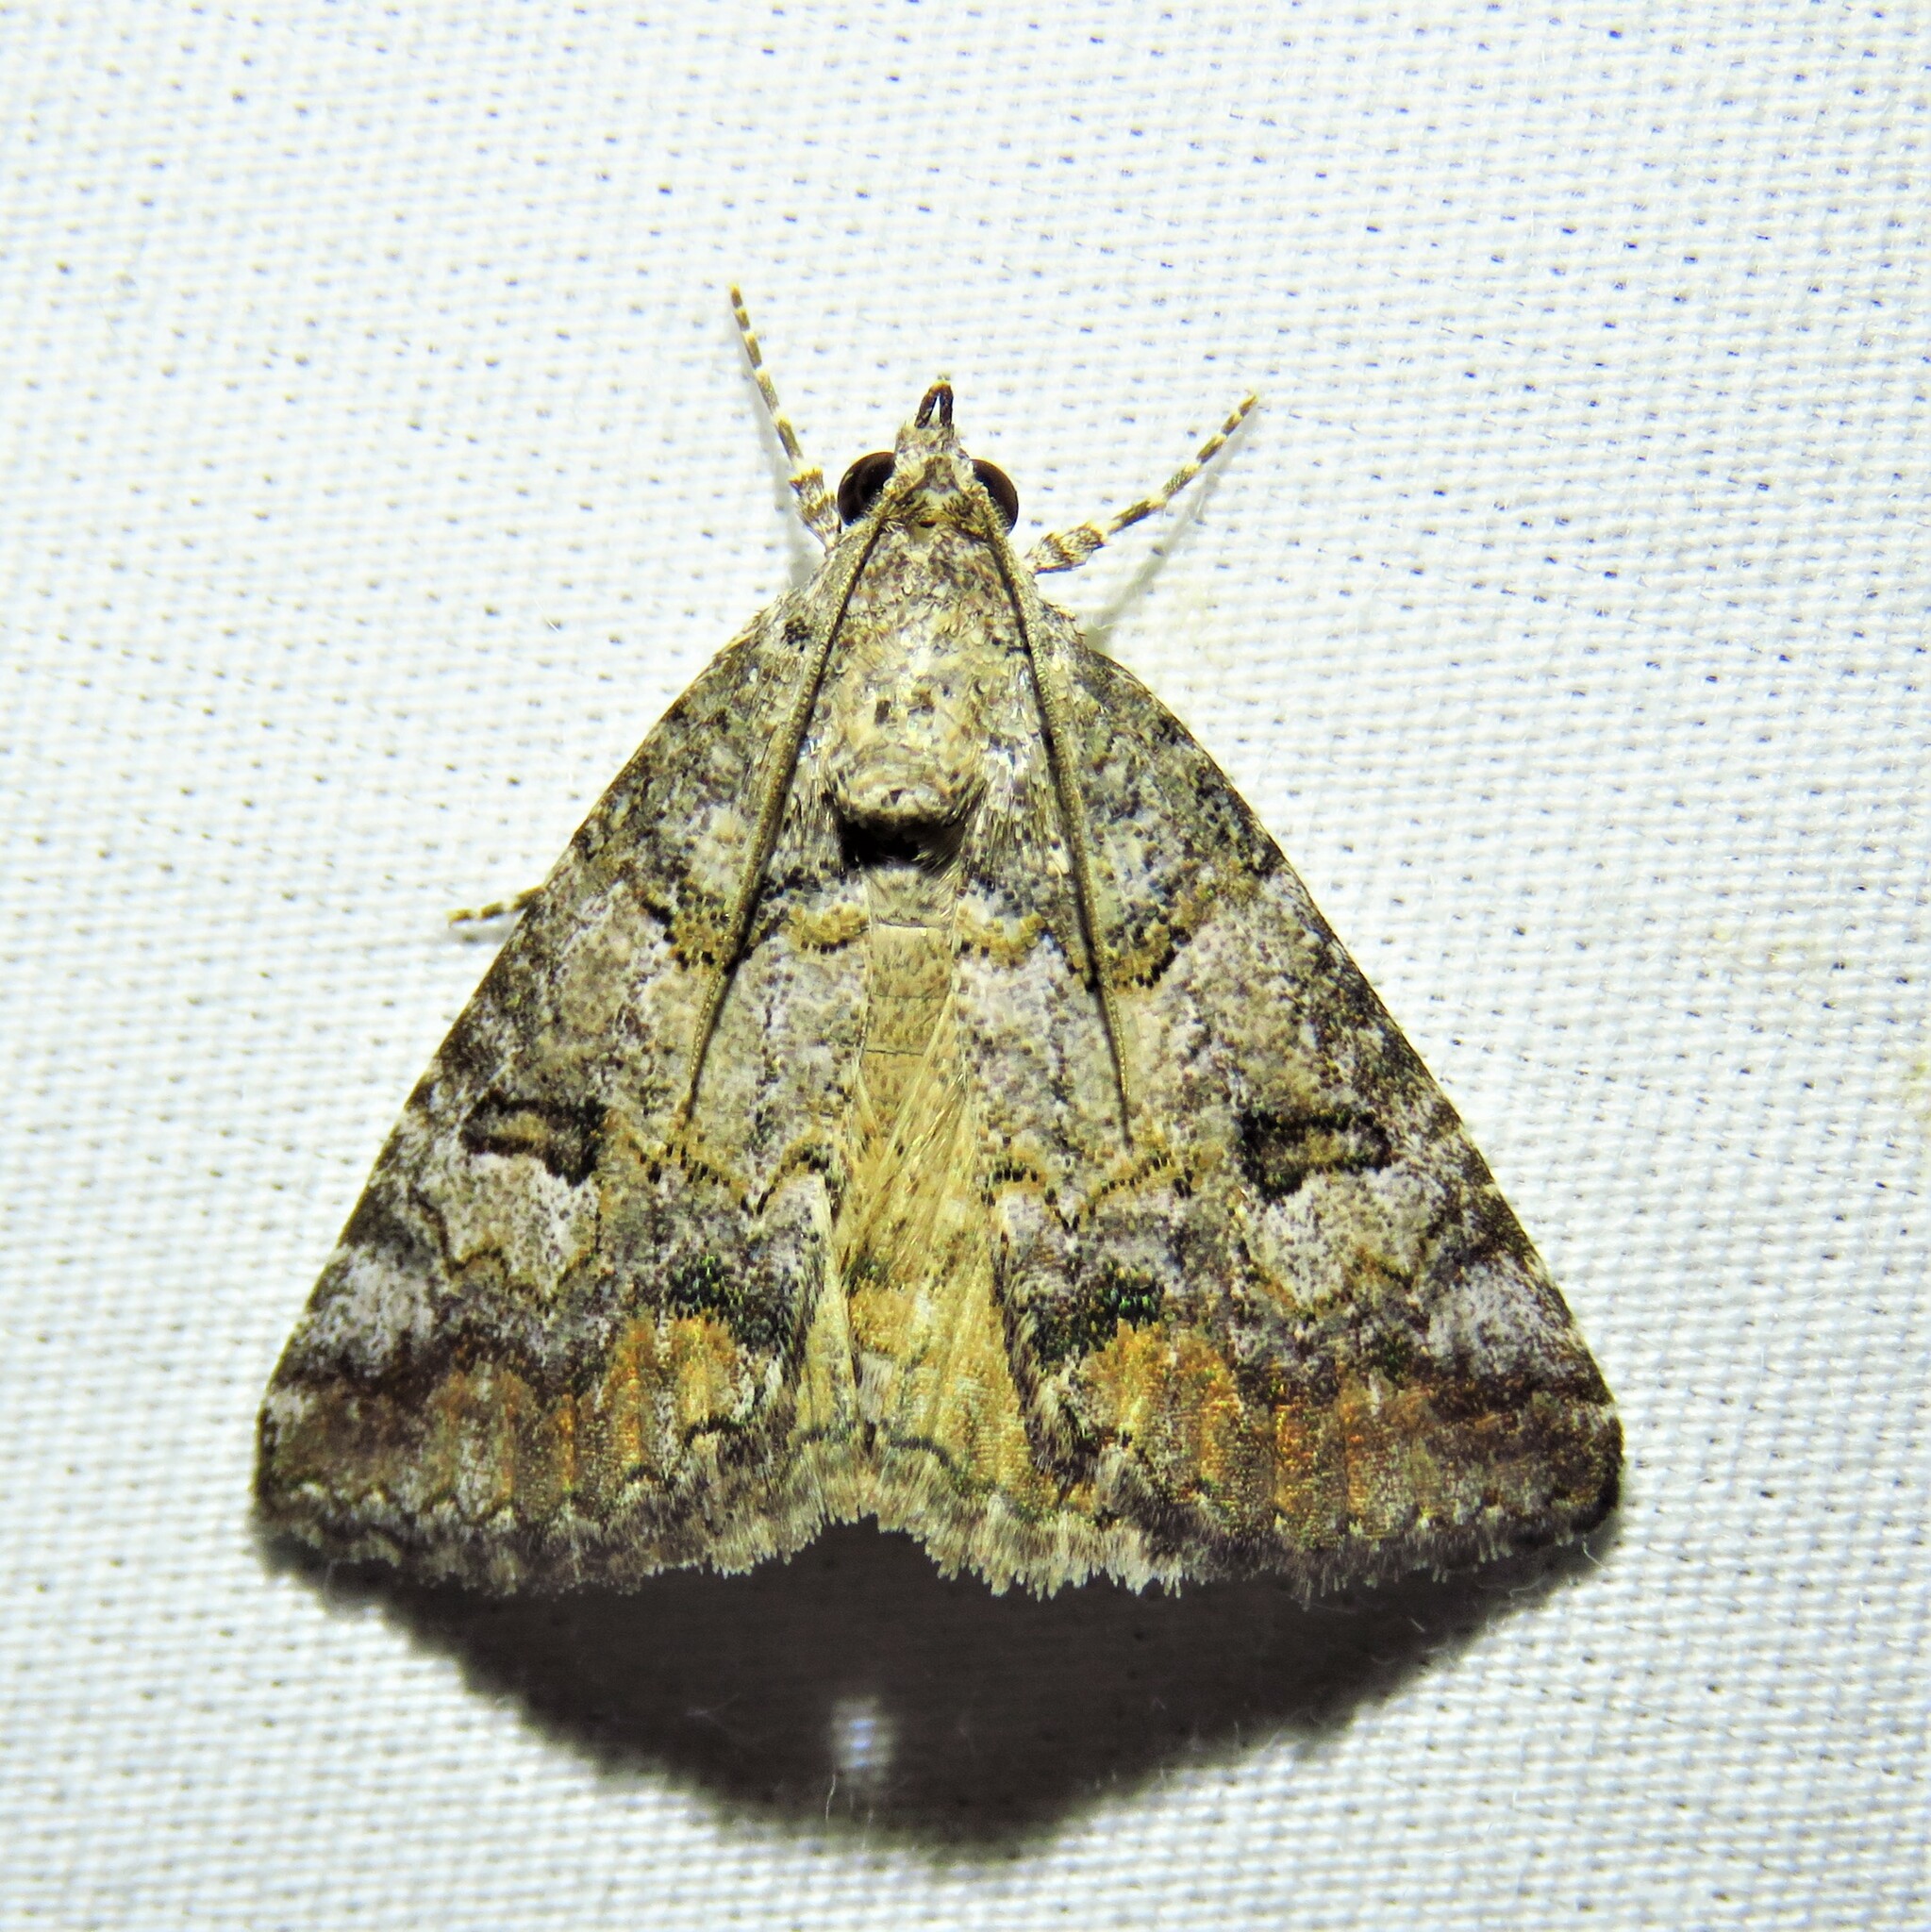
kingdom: Animalia
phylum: Arthropoda
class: Insecta
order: Lepidoptera
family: Erebidae
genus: Eubolina
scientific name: Eubolina impartialis
